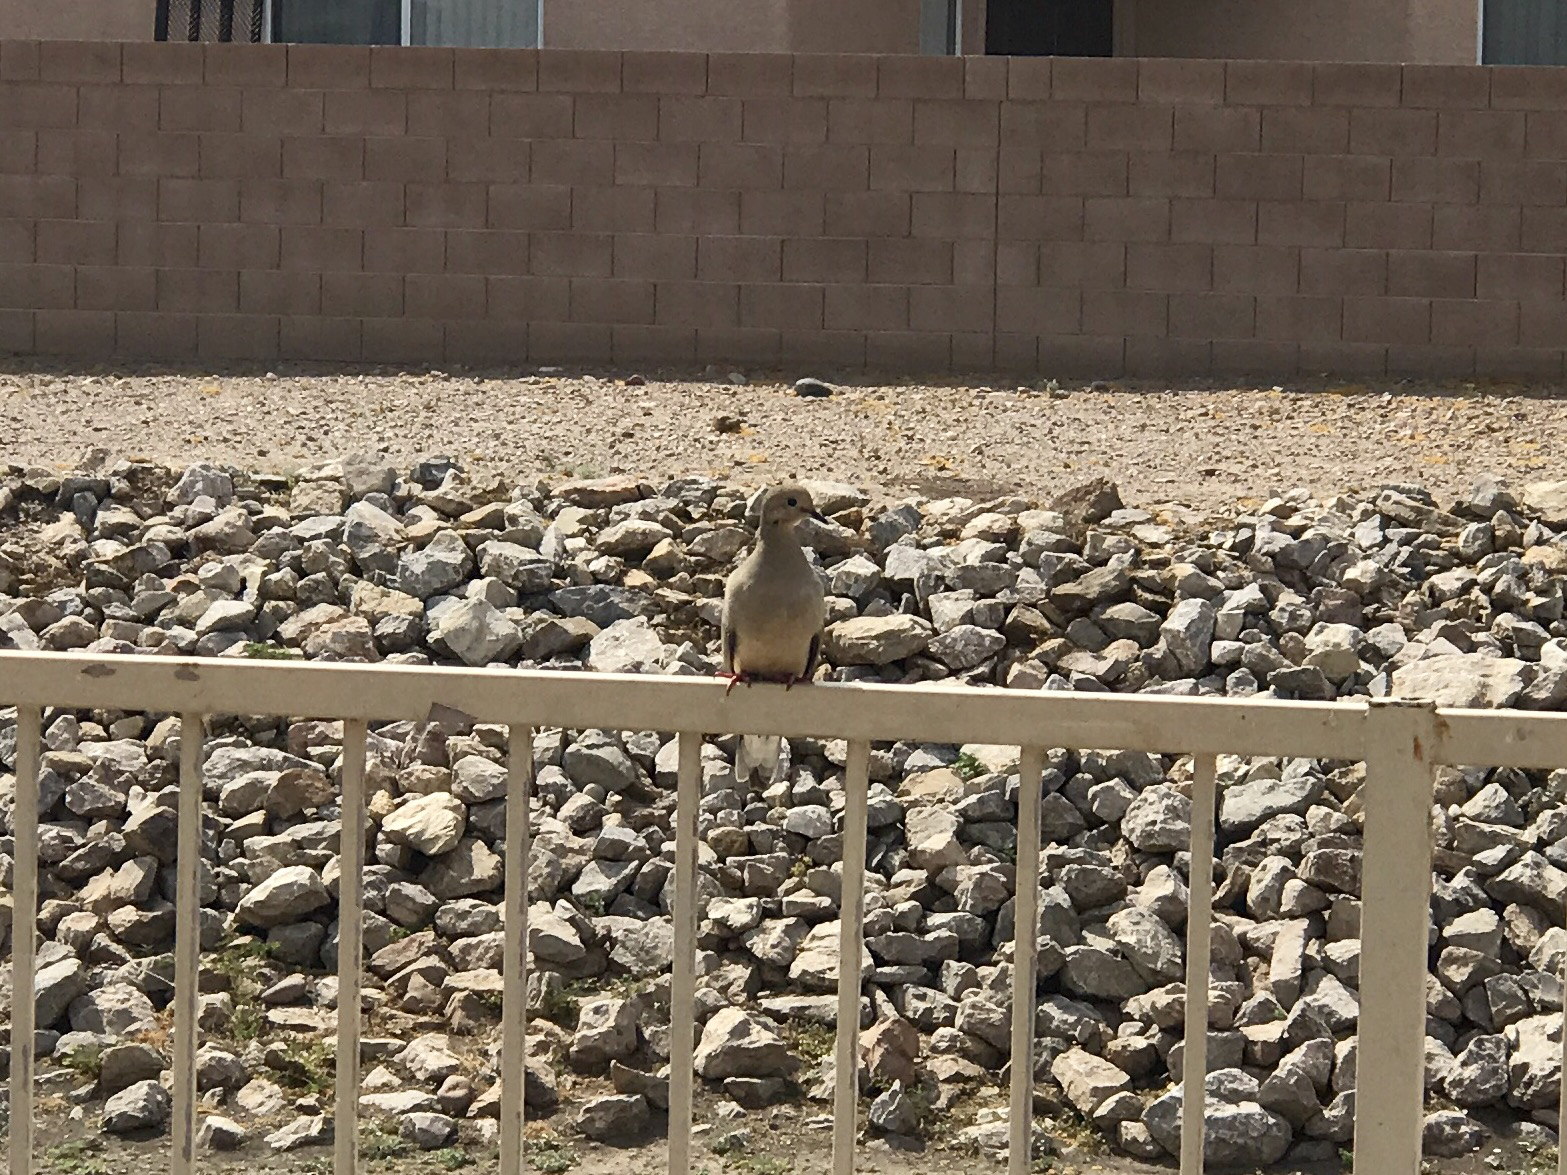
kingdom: Animalia
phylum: Chordata
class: Aves
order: Columbiformes
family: Columbidae
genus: Zenaida
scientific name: Zenaida macroura
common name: Mourning dove
